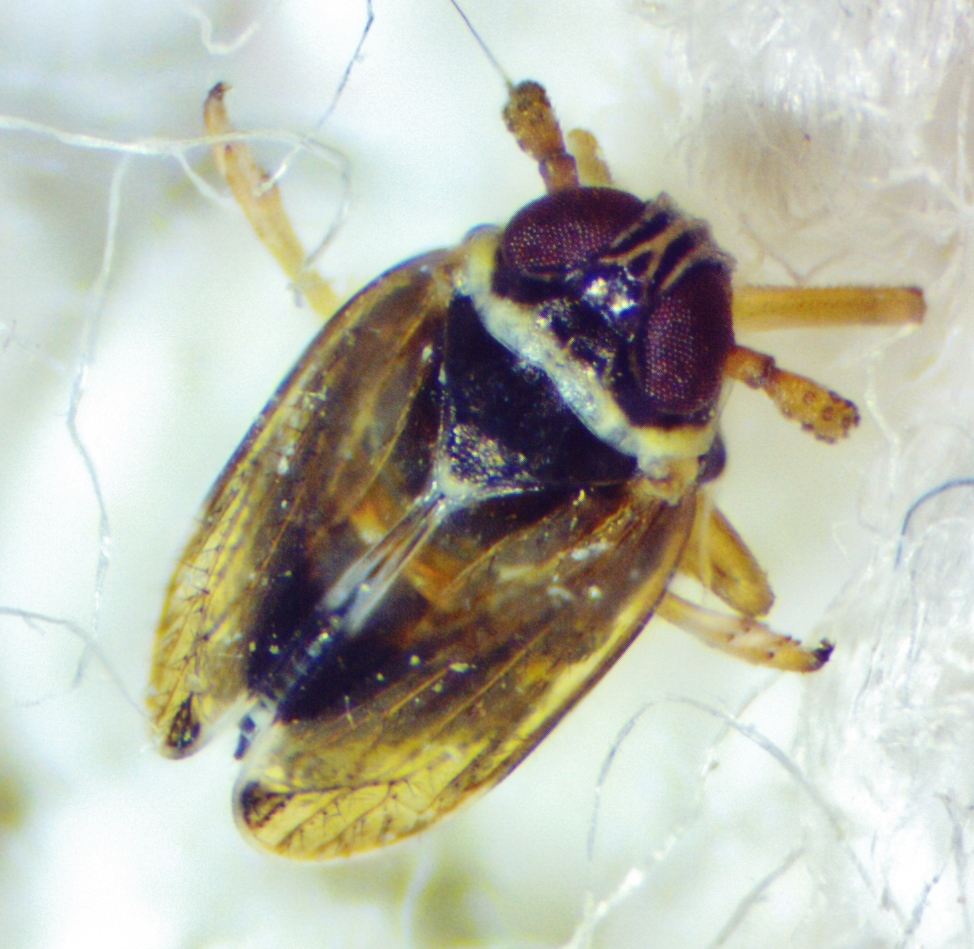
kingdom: Animalia
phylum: Arthropoda
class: Insecta
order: Hemiptera
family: Delphacidae
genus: Chionomus
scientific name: Chionomus
